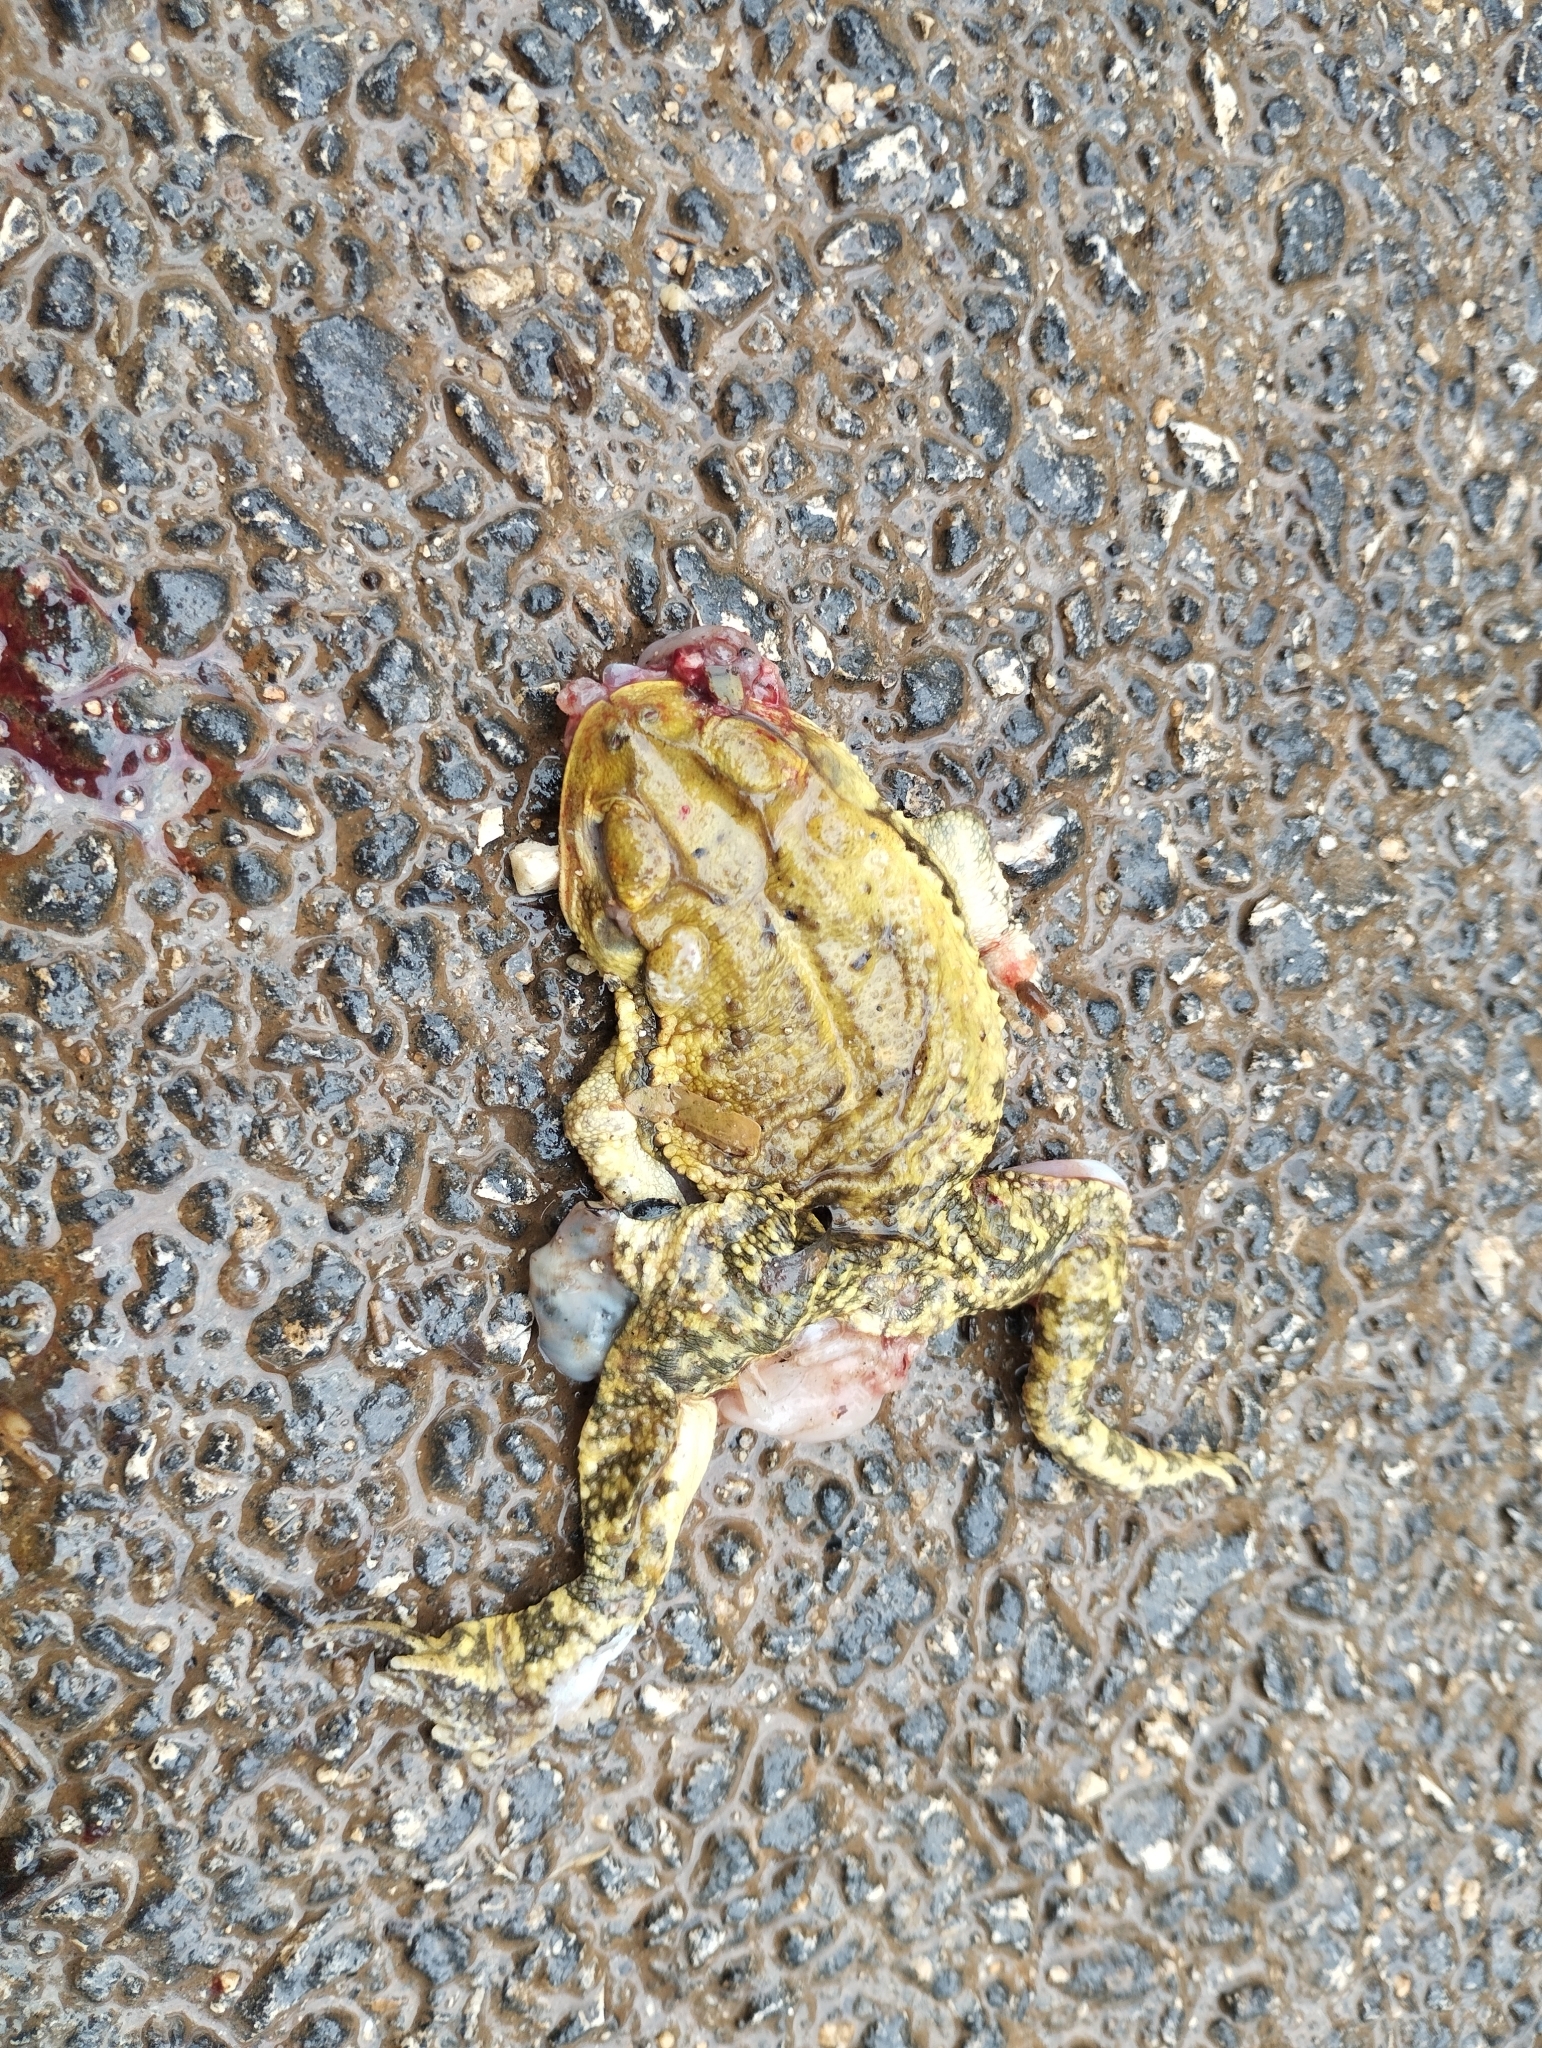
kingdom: Animalia
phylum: Chordata
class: Amphibia
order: Anura
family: Bufonidae
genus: Incilius
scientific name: Incilius valliceps
